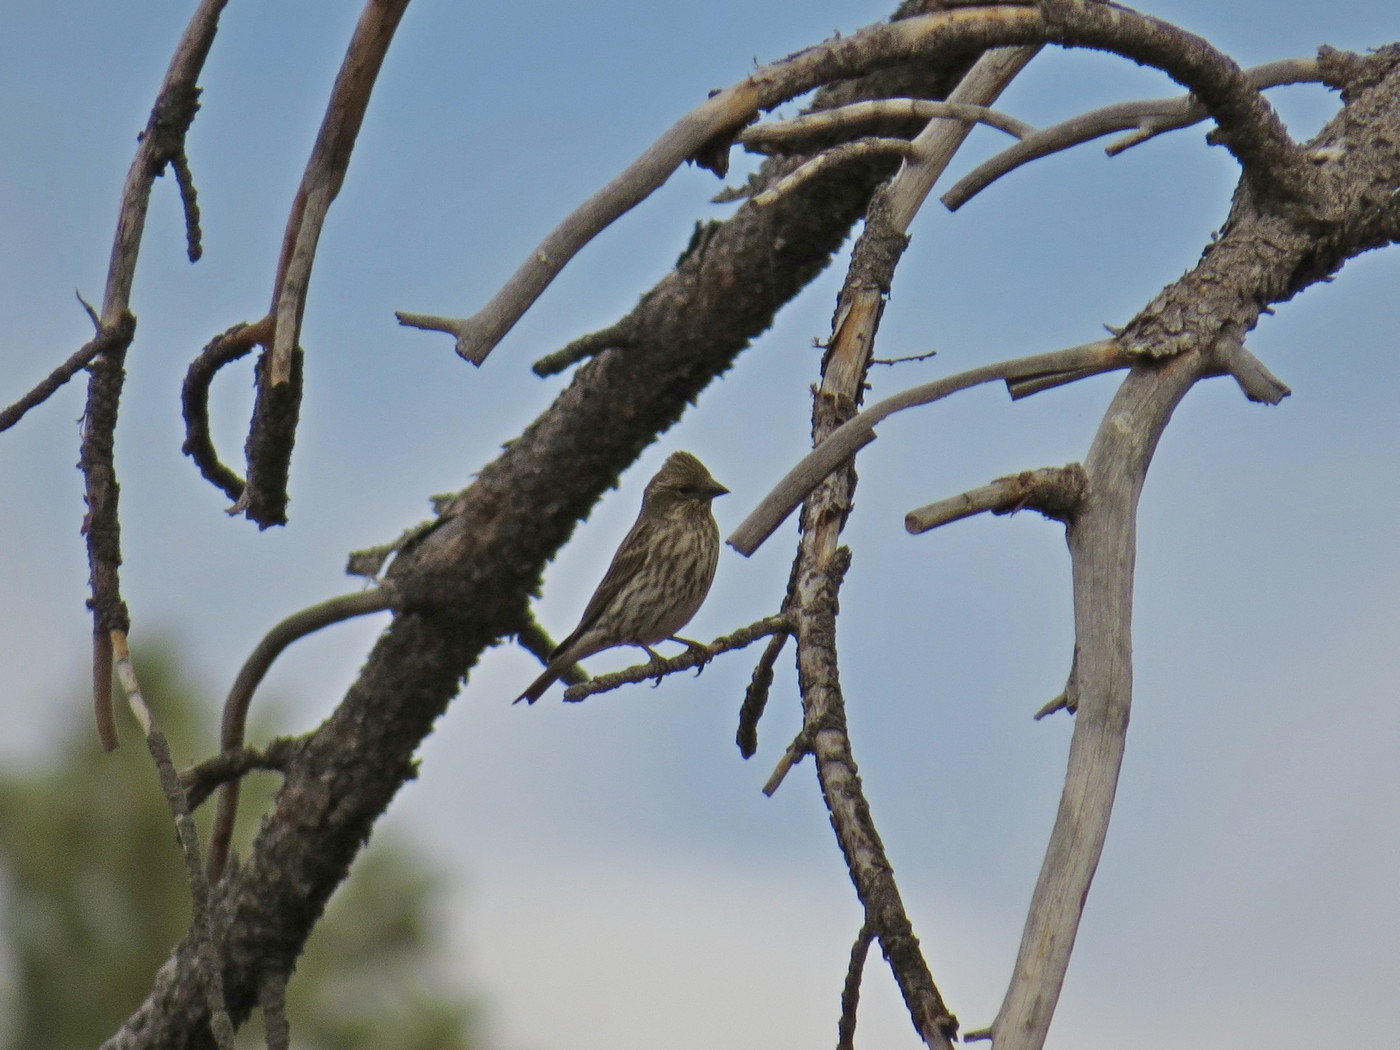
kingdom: Animalia
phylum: Chordata
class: Aves
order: Passeriformes
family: Fringillidae
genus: Haemorhous
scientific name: Haemorhous cassinii
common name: Cassin's finch
